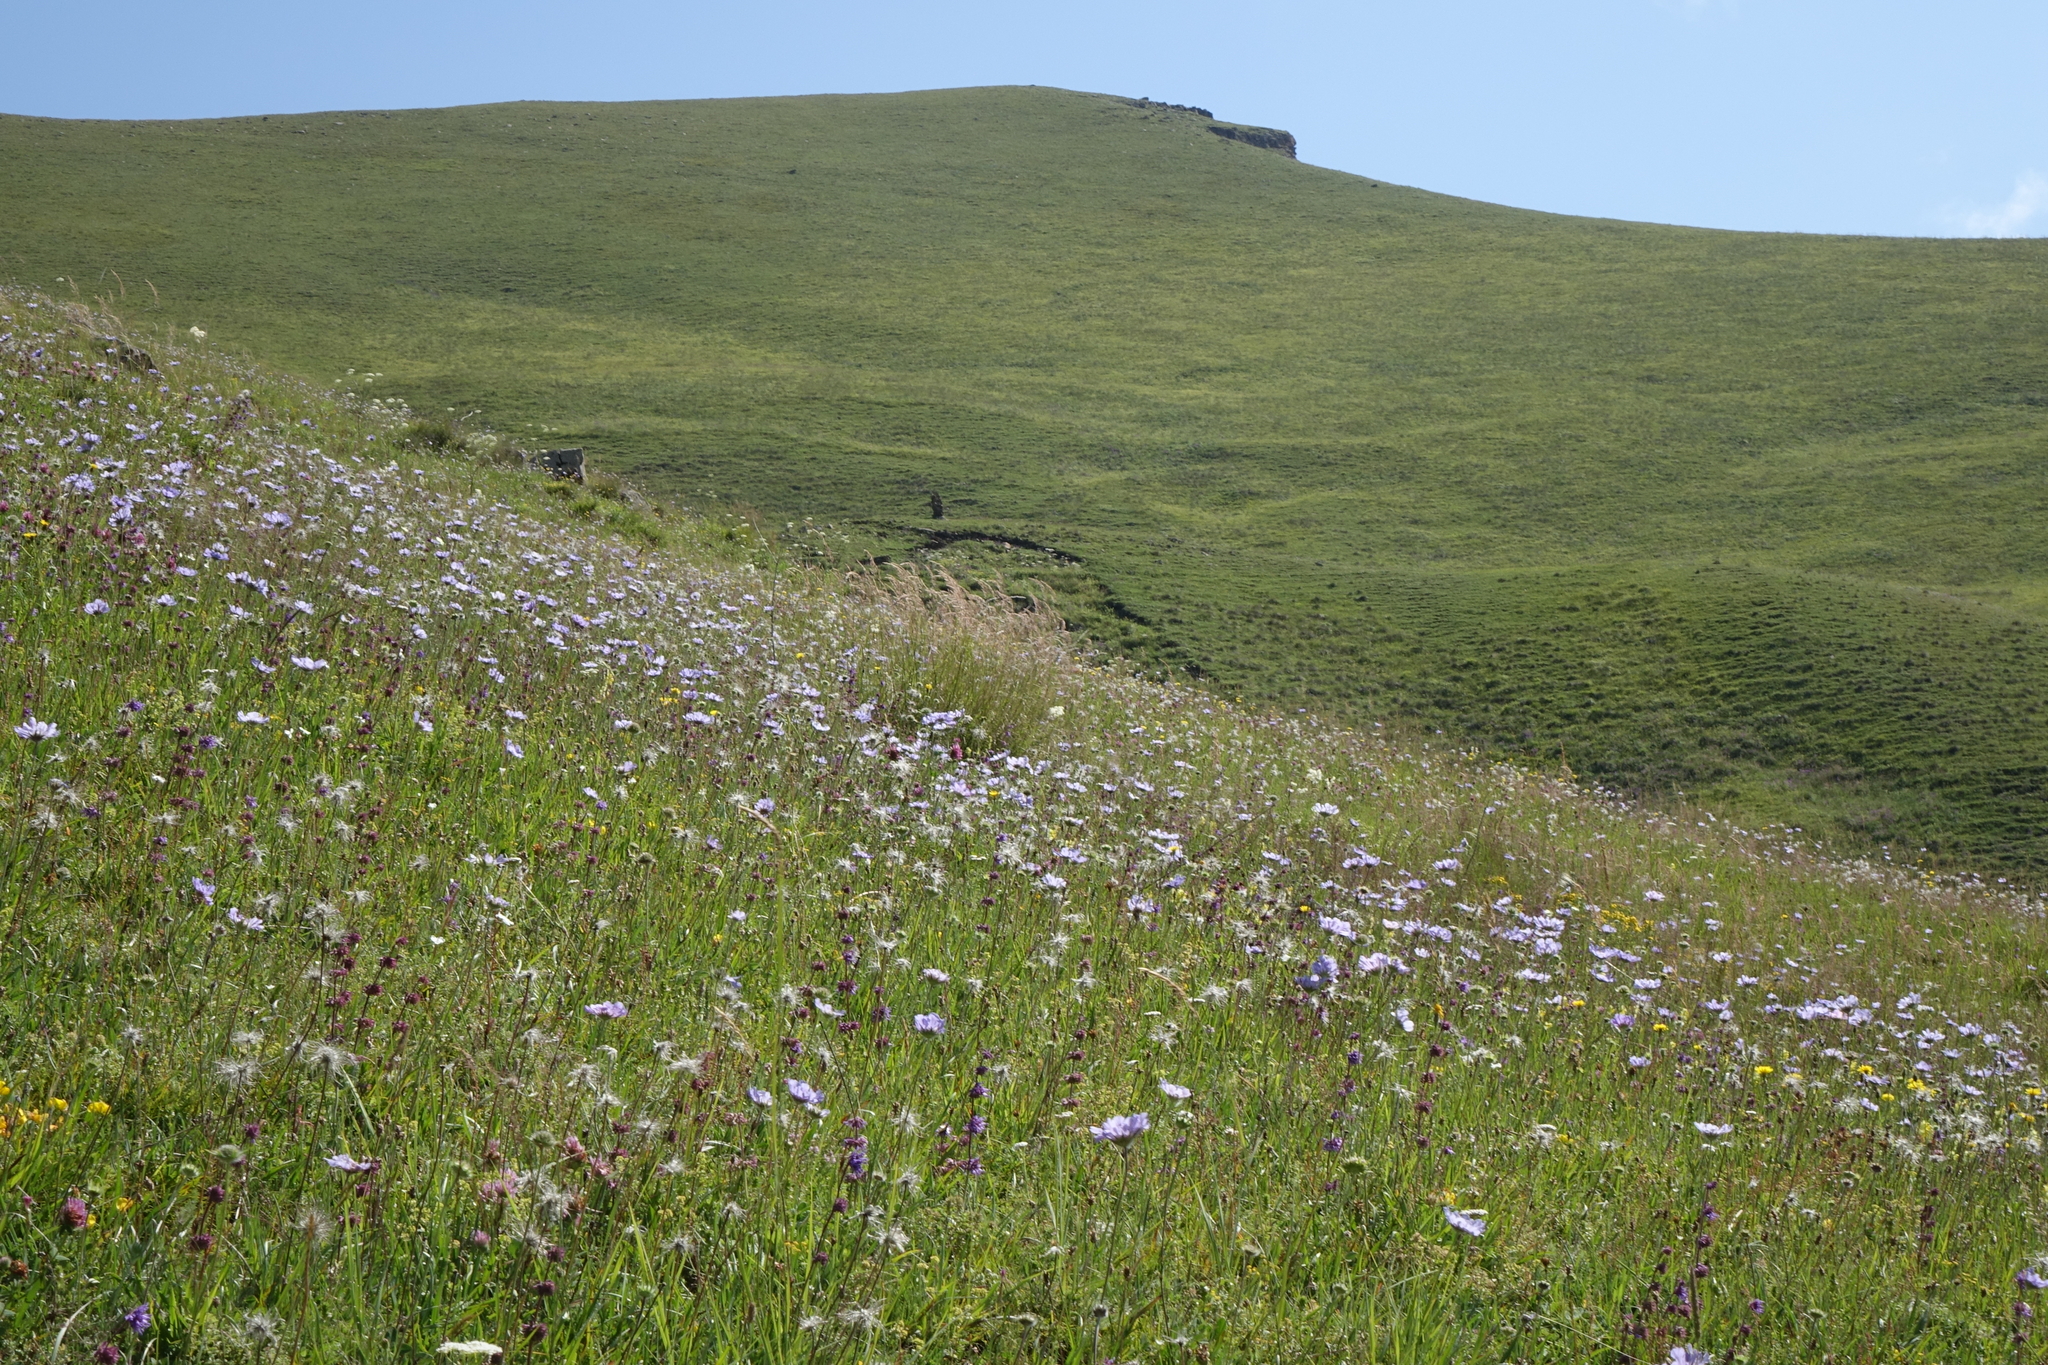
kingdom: Plantae
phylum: Tracheophyta
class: Magnoliopsida
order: Dipsacales
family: Caprifoliaceae
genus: Lomelosia
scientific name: Lomelosia caucasica
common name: Pincushion-flower
